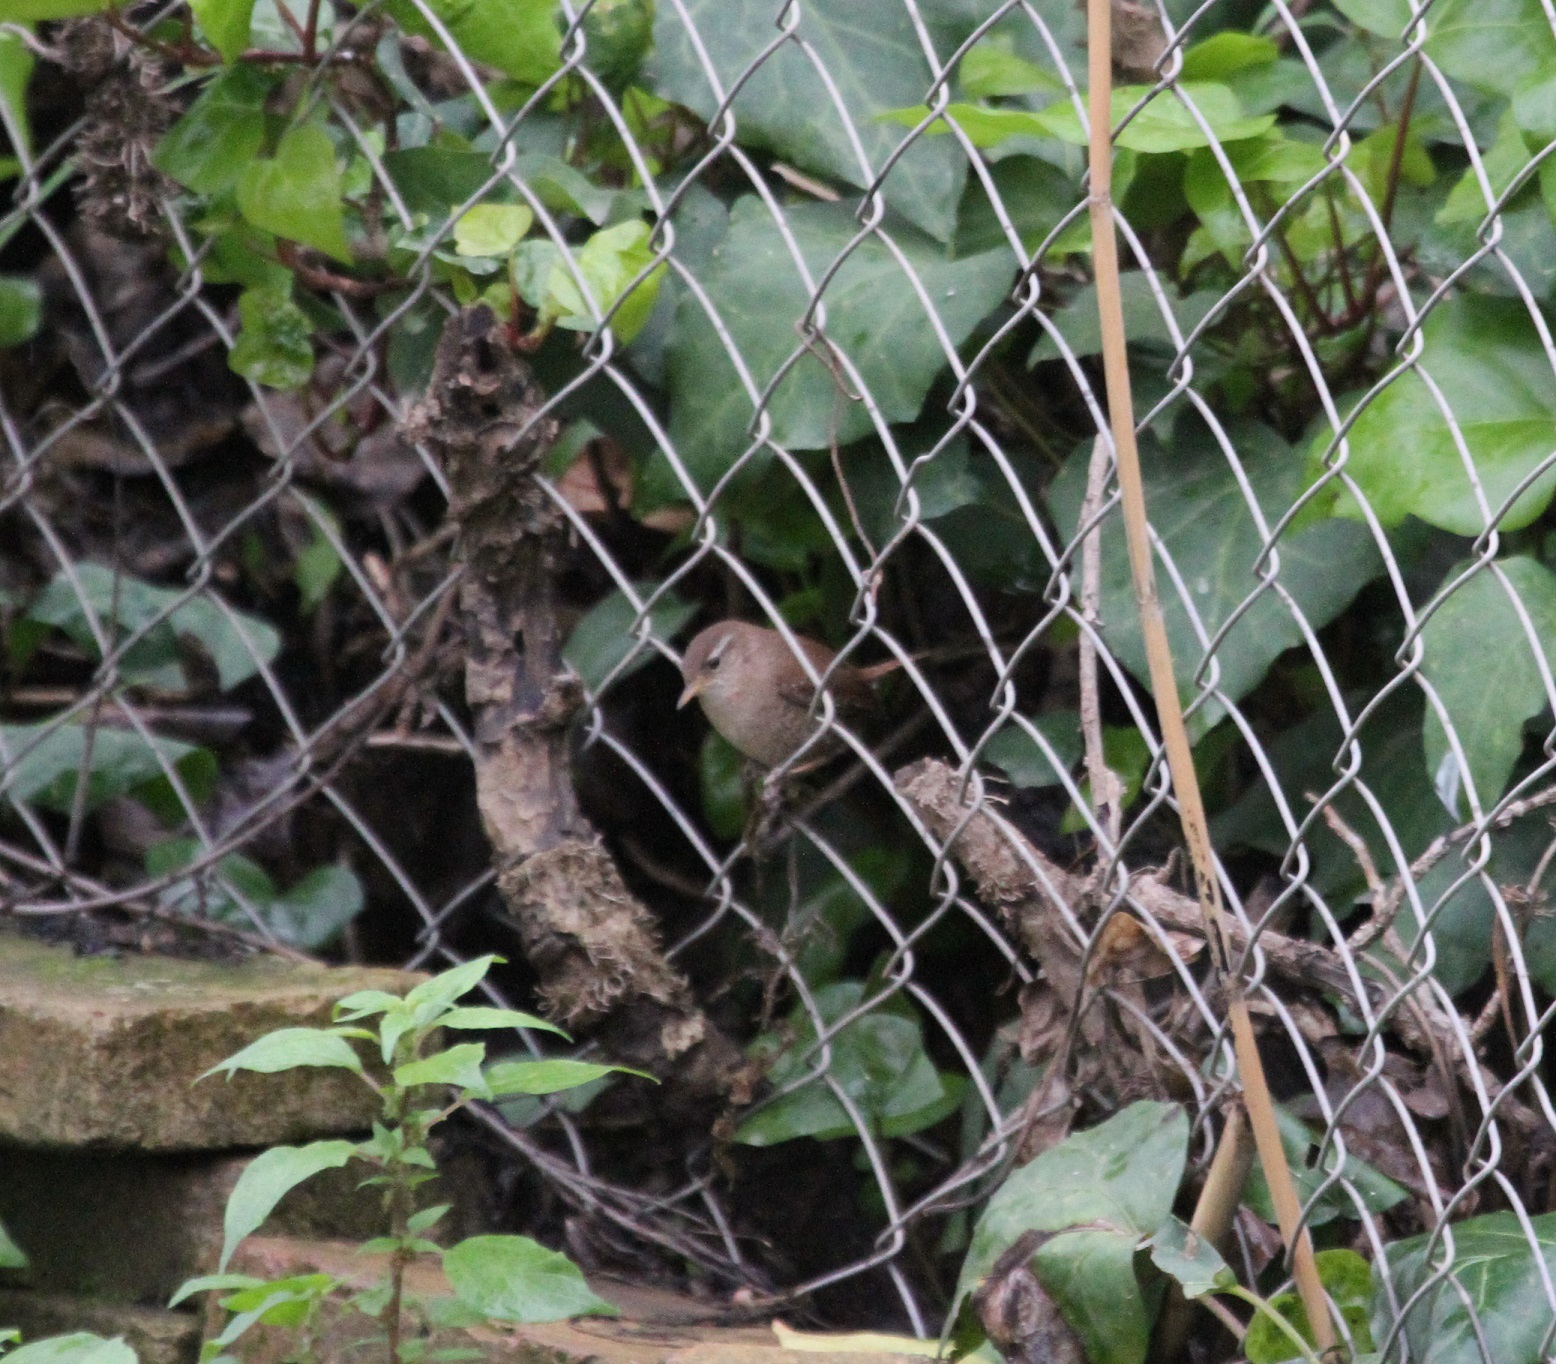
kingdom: Animalia
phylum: Chordata
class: Aves
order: Passeriformes
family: Troglodytidae
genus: Troglodytes
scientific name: Troglodytes troglodytes
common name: Eurasian wren
